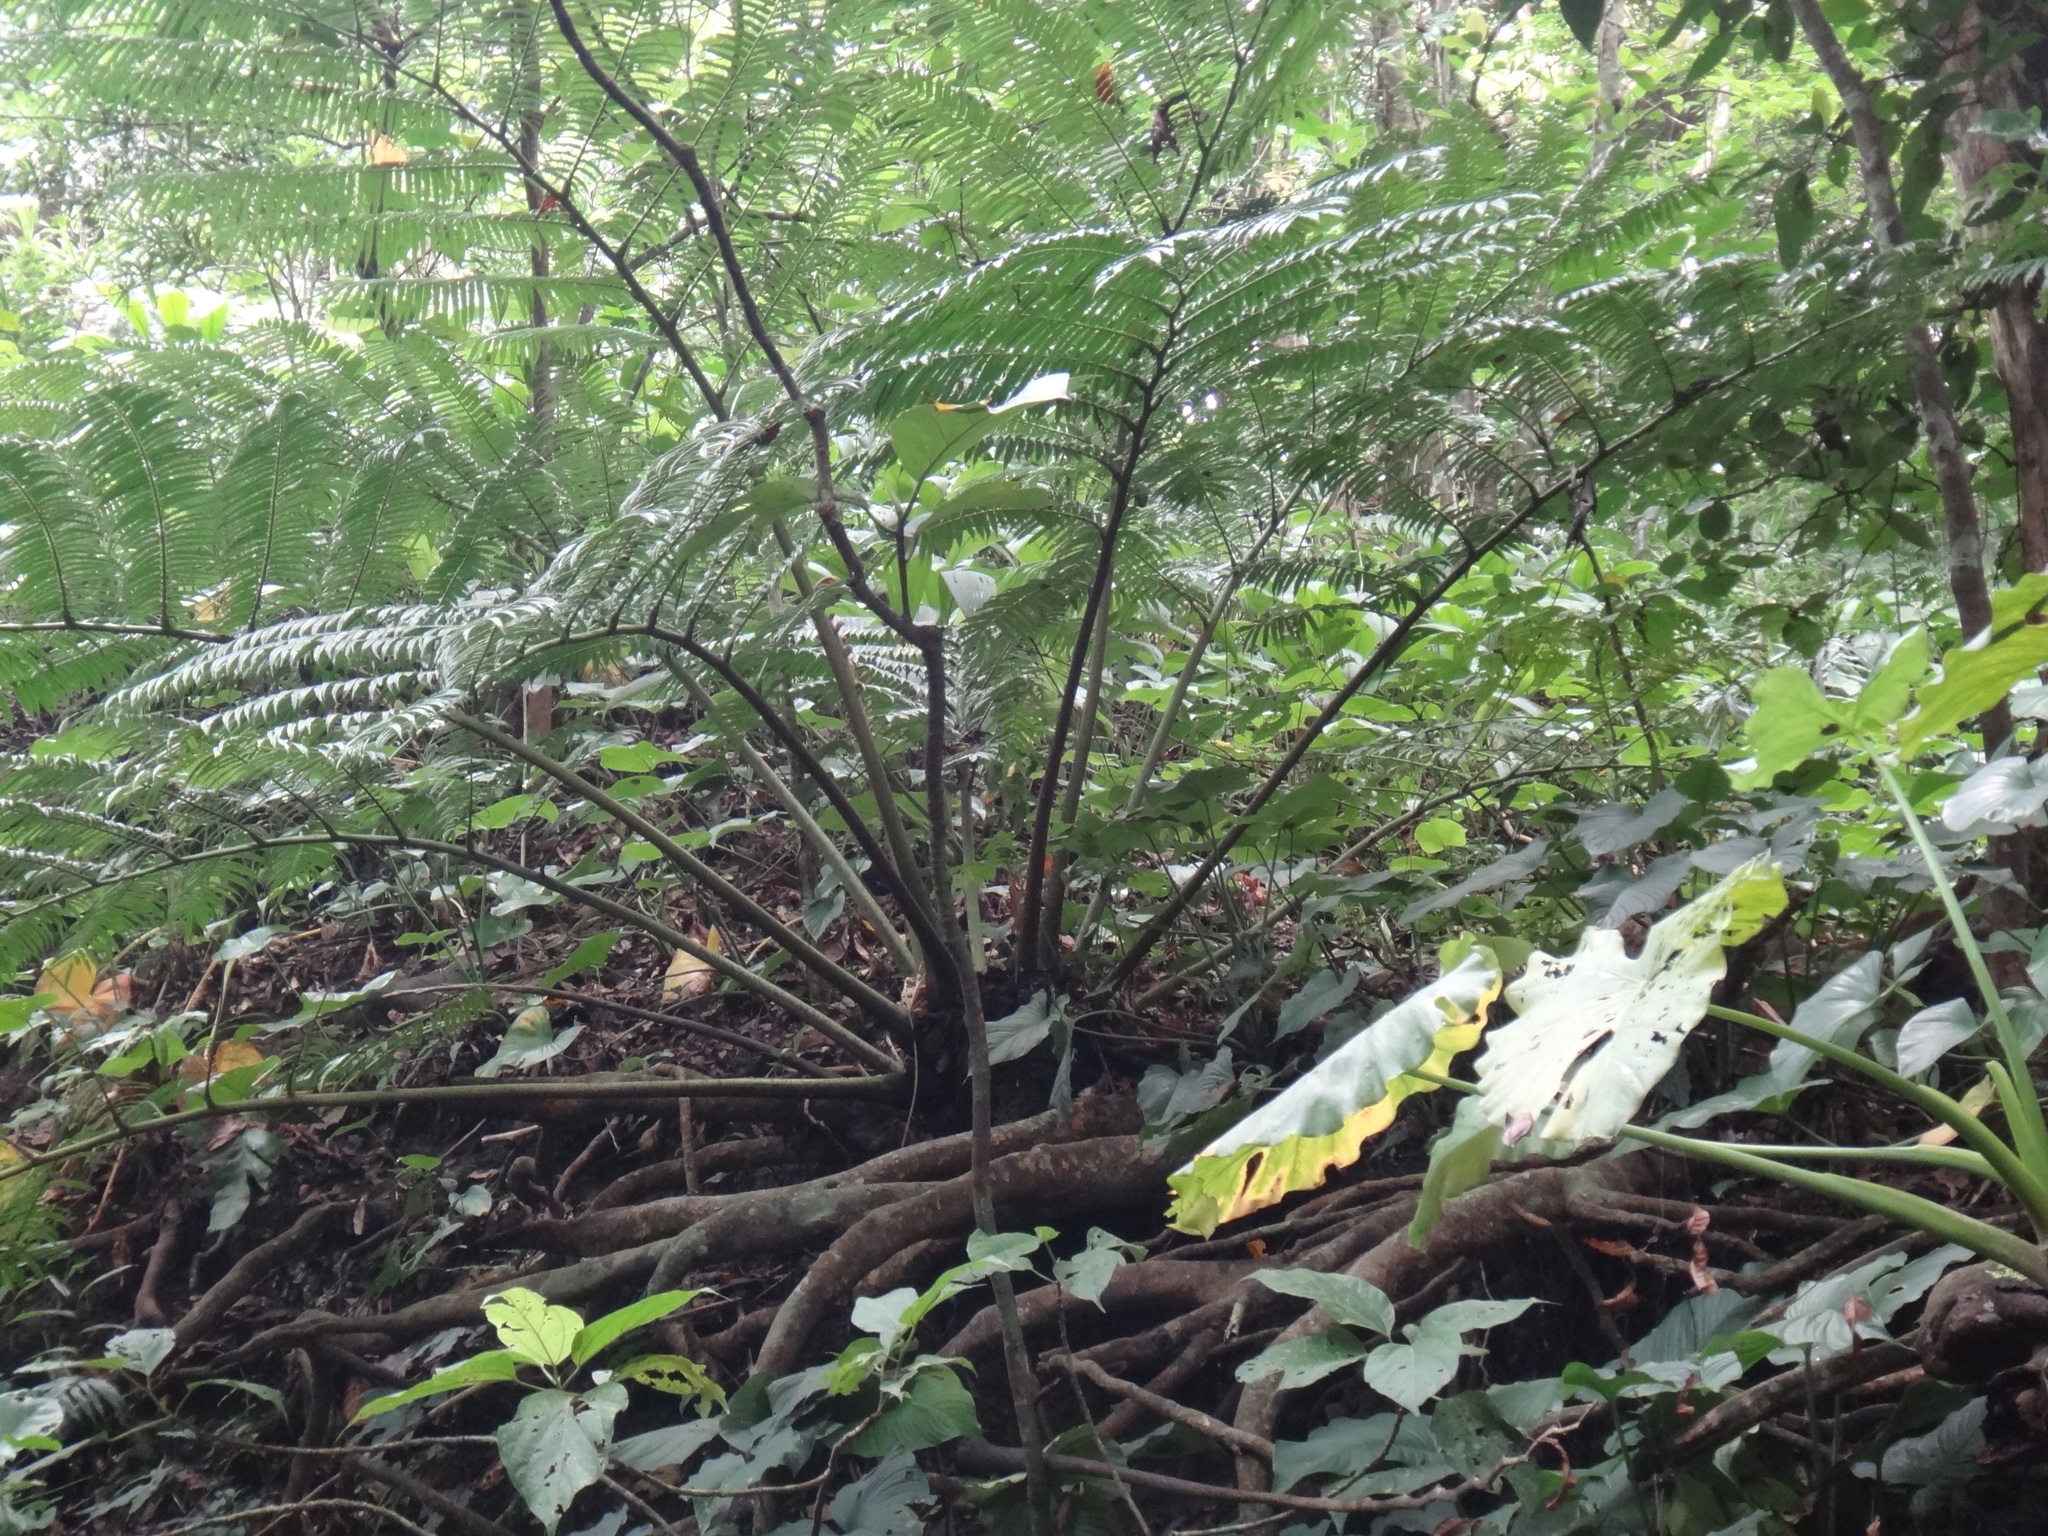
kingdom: Plantae
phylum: Tracheophyta
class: Polypodiopsida
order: Marattiales
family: Marattiaceae
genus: Angiopteris
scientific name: Angiopteris evecta
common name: Mule's-foot fern
